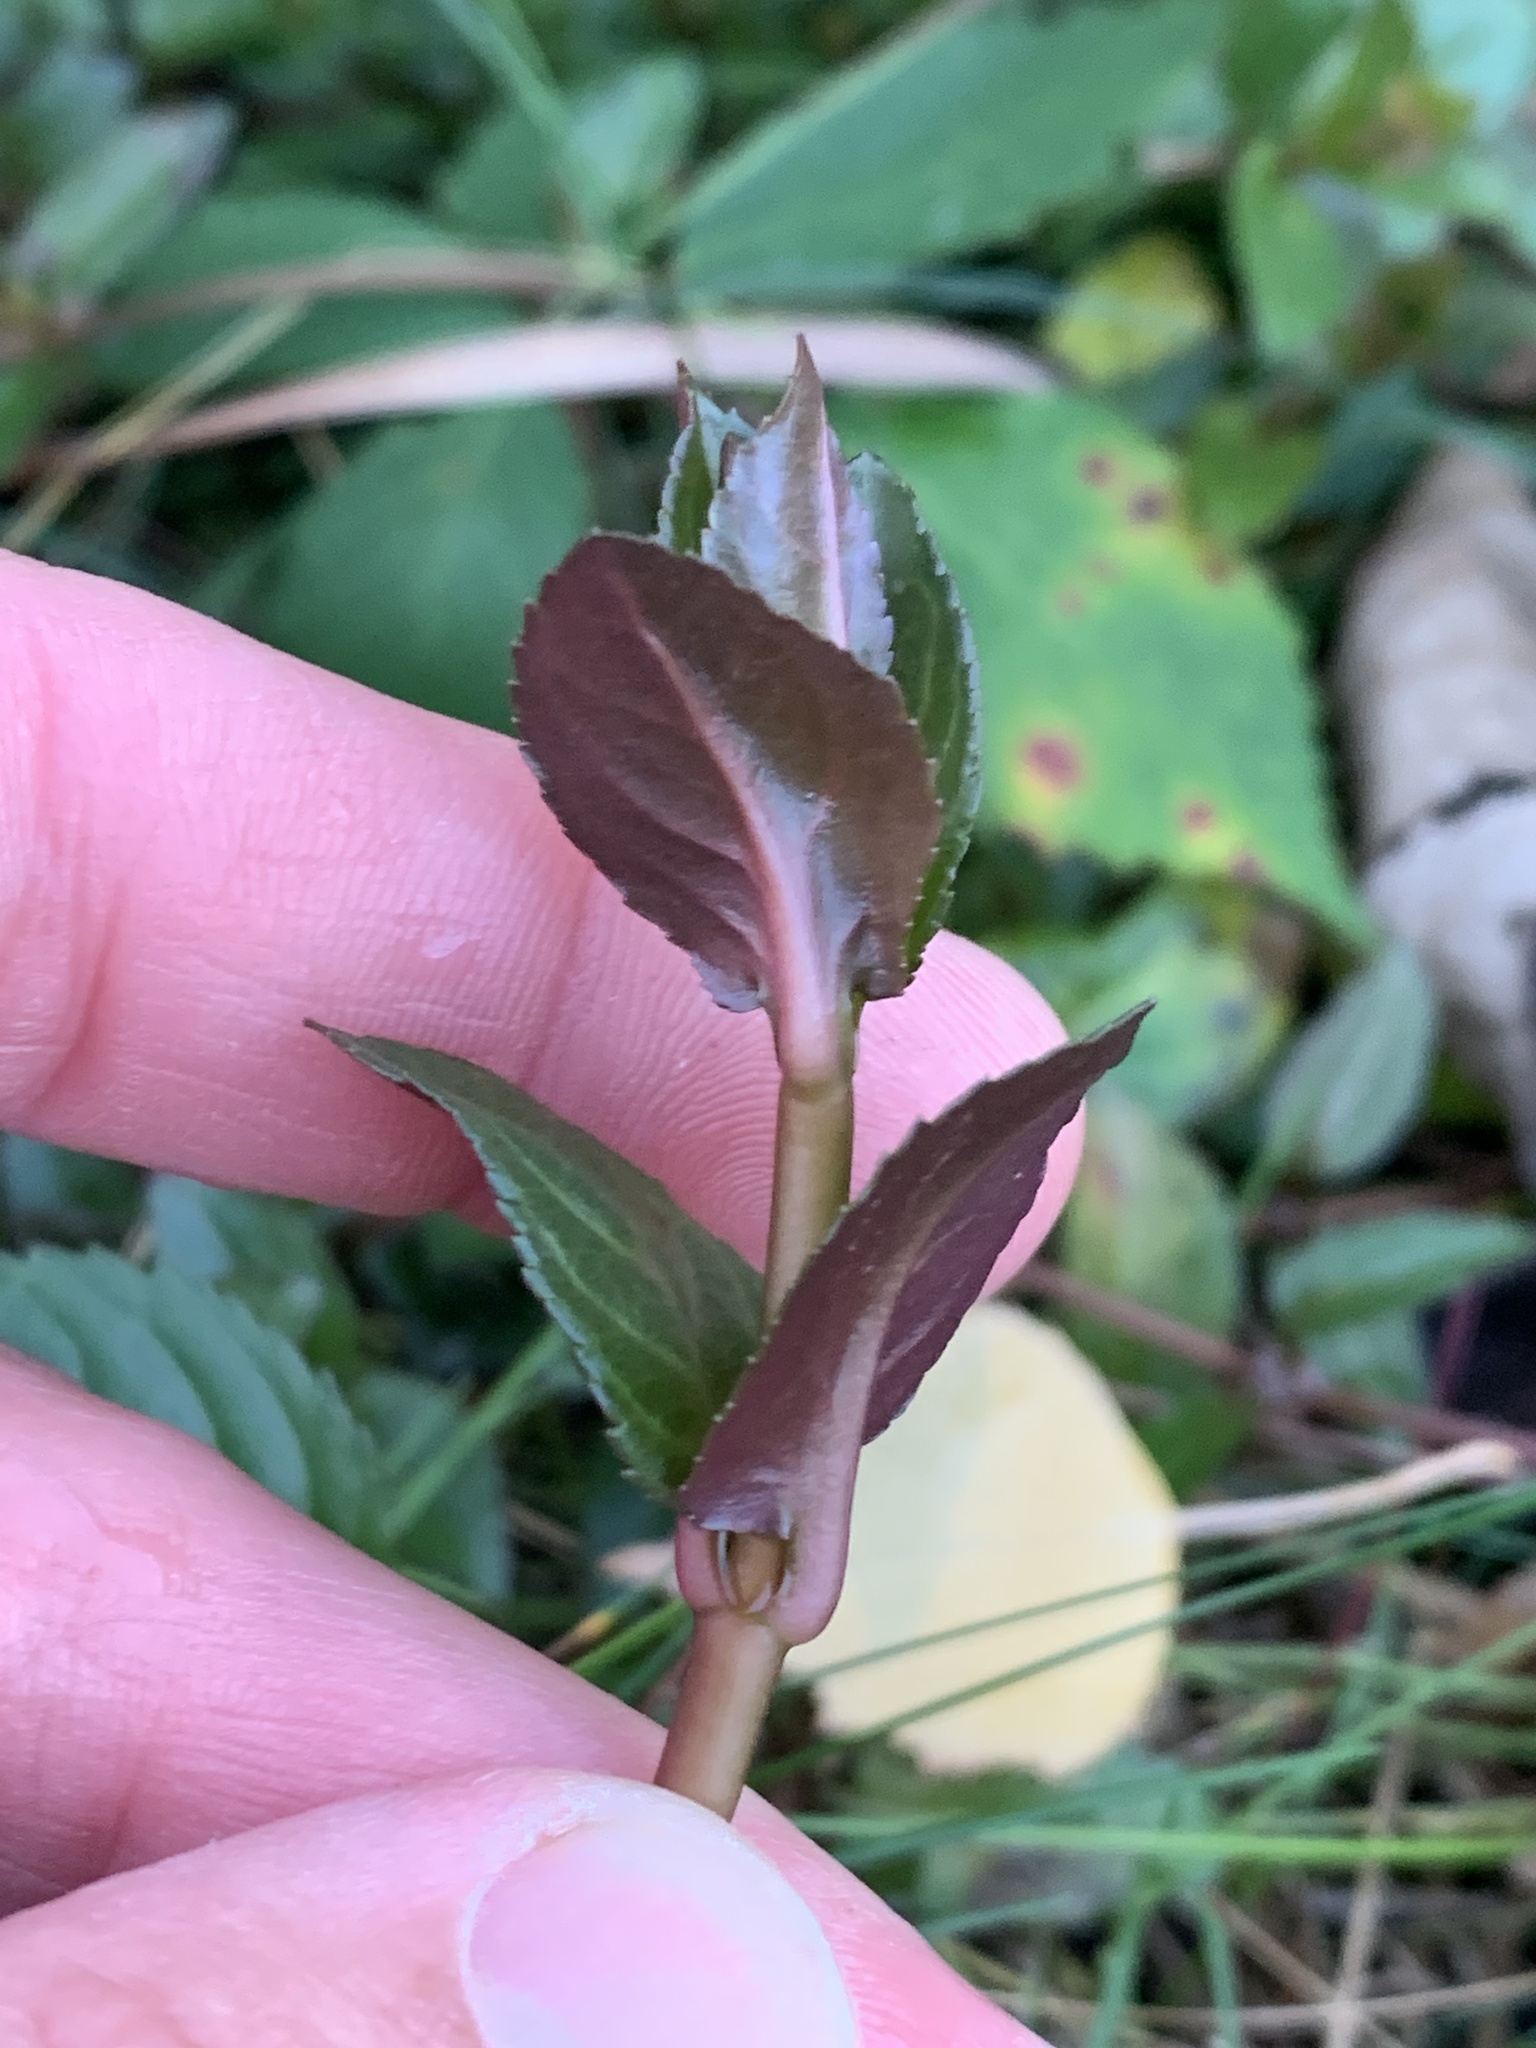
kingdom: Plantae
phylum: Tracheophyta
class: Magnoliopsida
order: Lamiales
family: Plantaginaceae
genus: Veronica
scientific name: Veronica americana
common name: American brooklime
